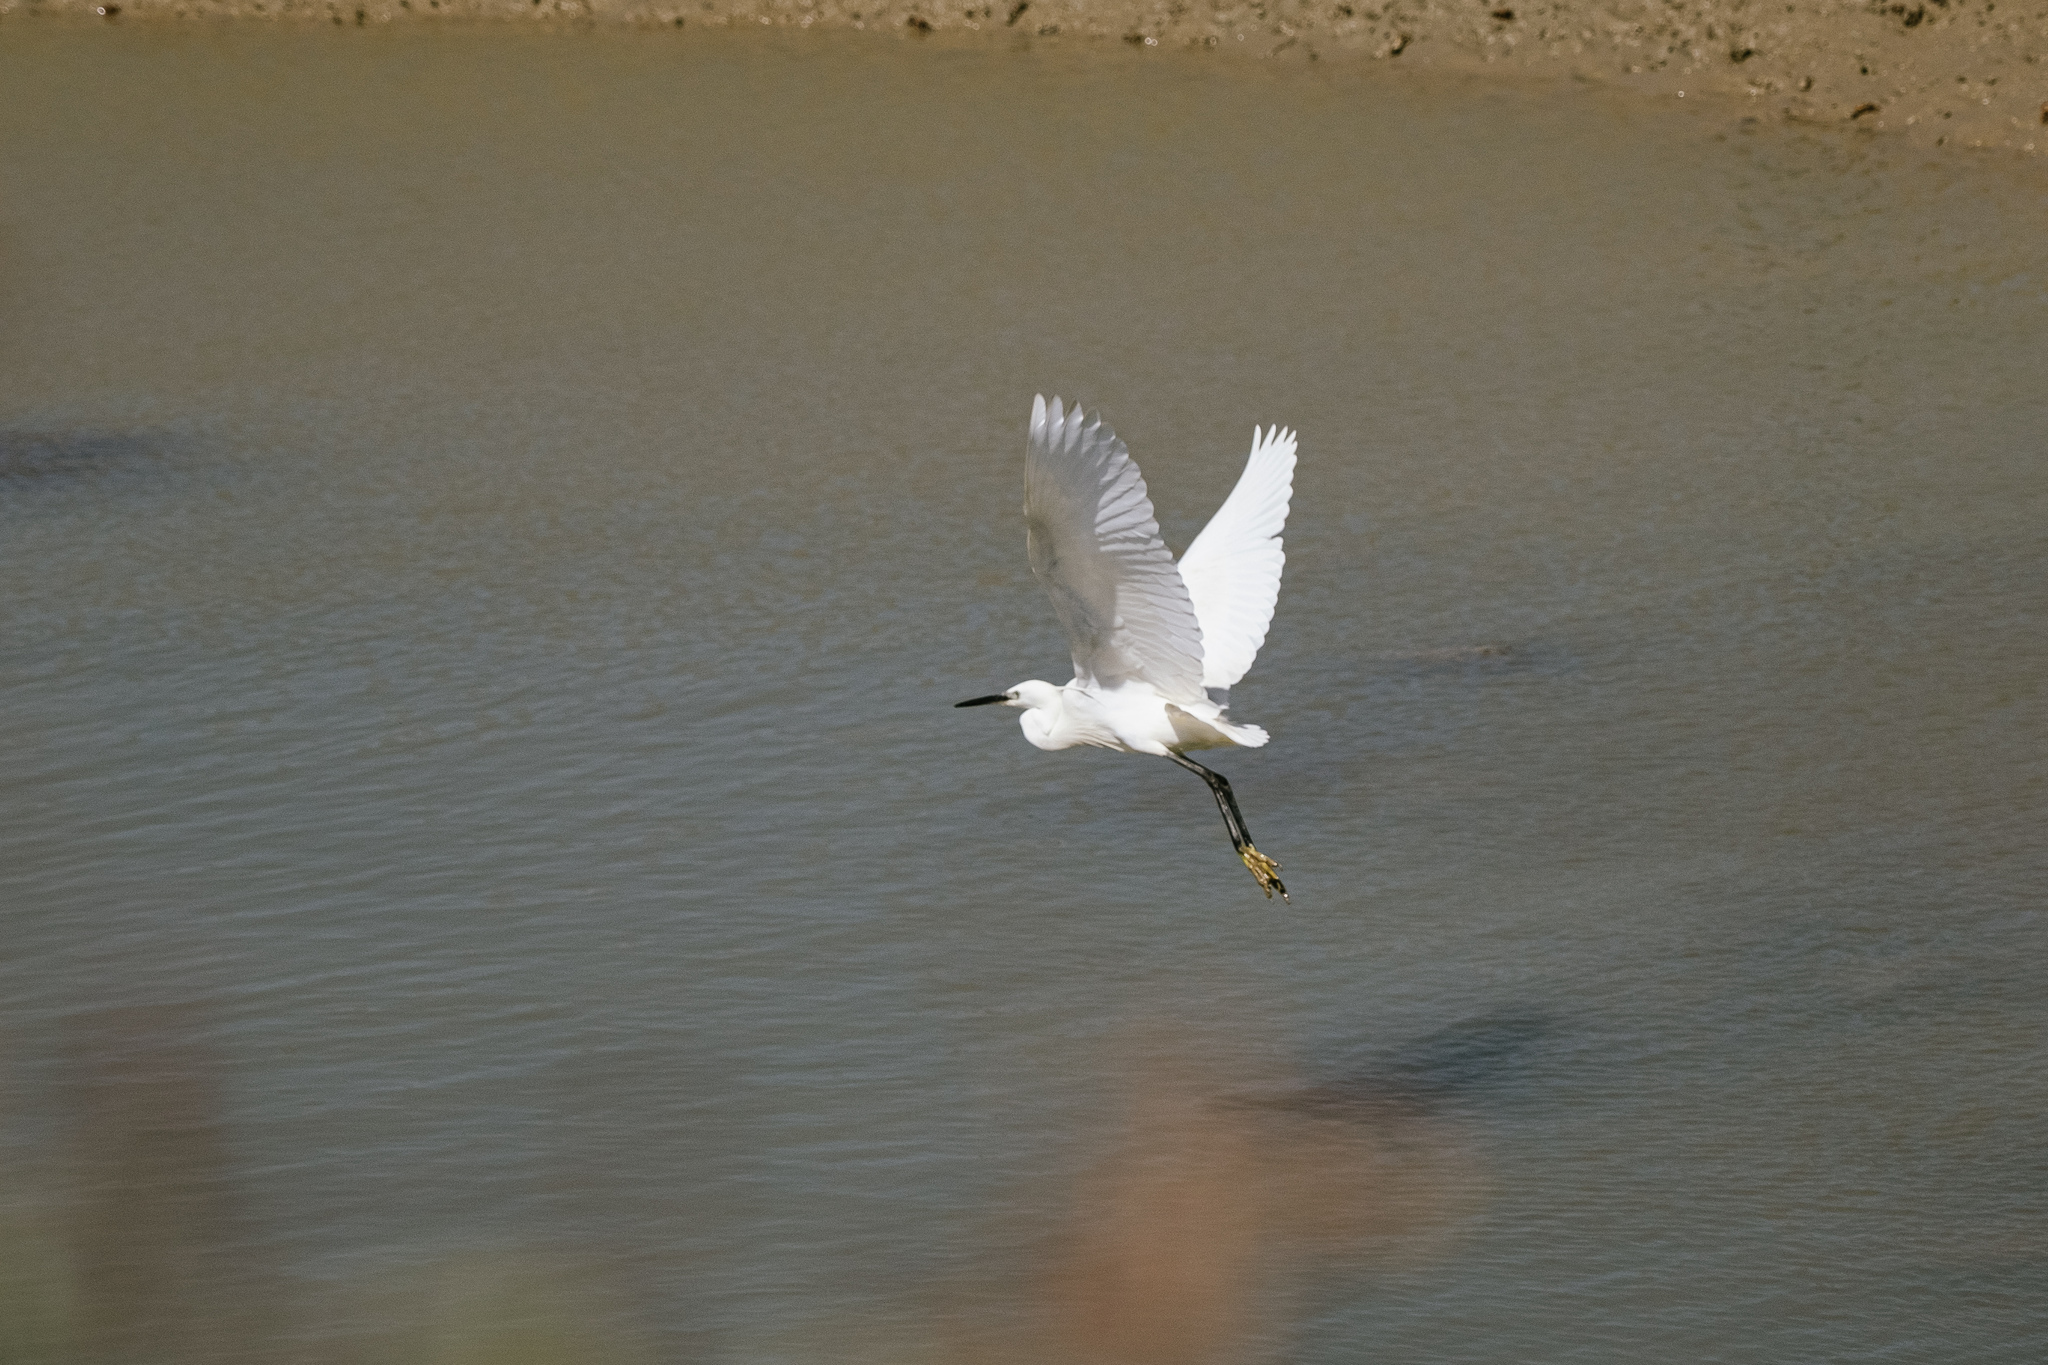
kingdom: Animalia
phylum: Chordata
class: Aves
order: Pelecaniformes
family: Ardeidae
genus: Egretta
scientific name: Egretta garzetta
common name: Little egret
